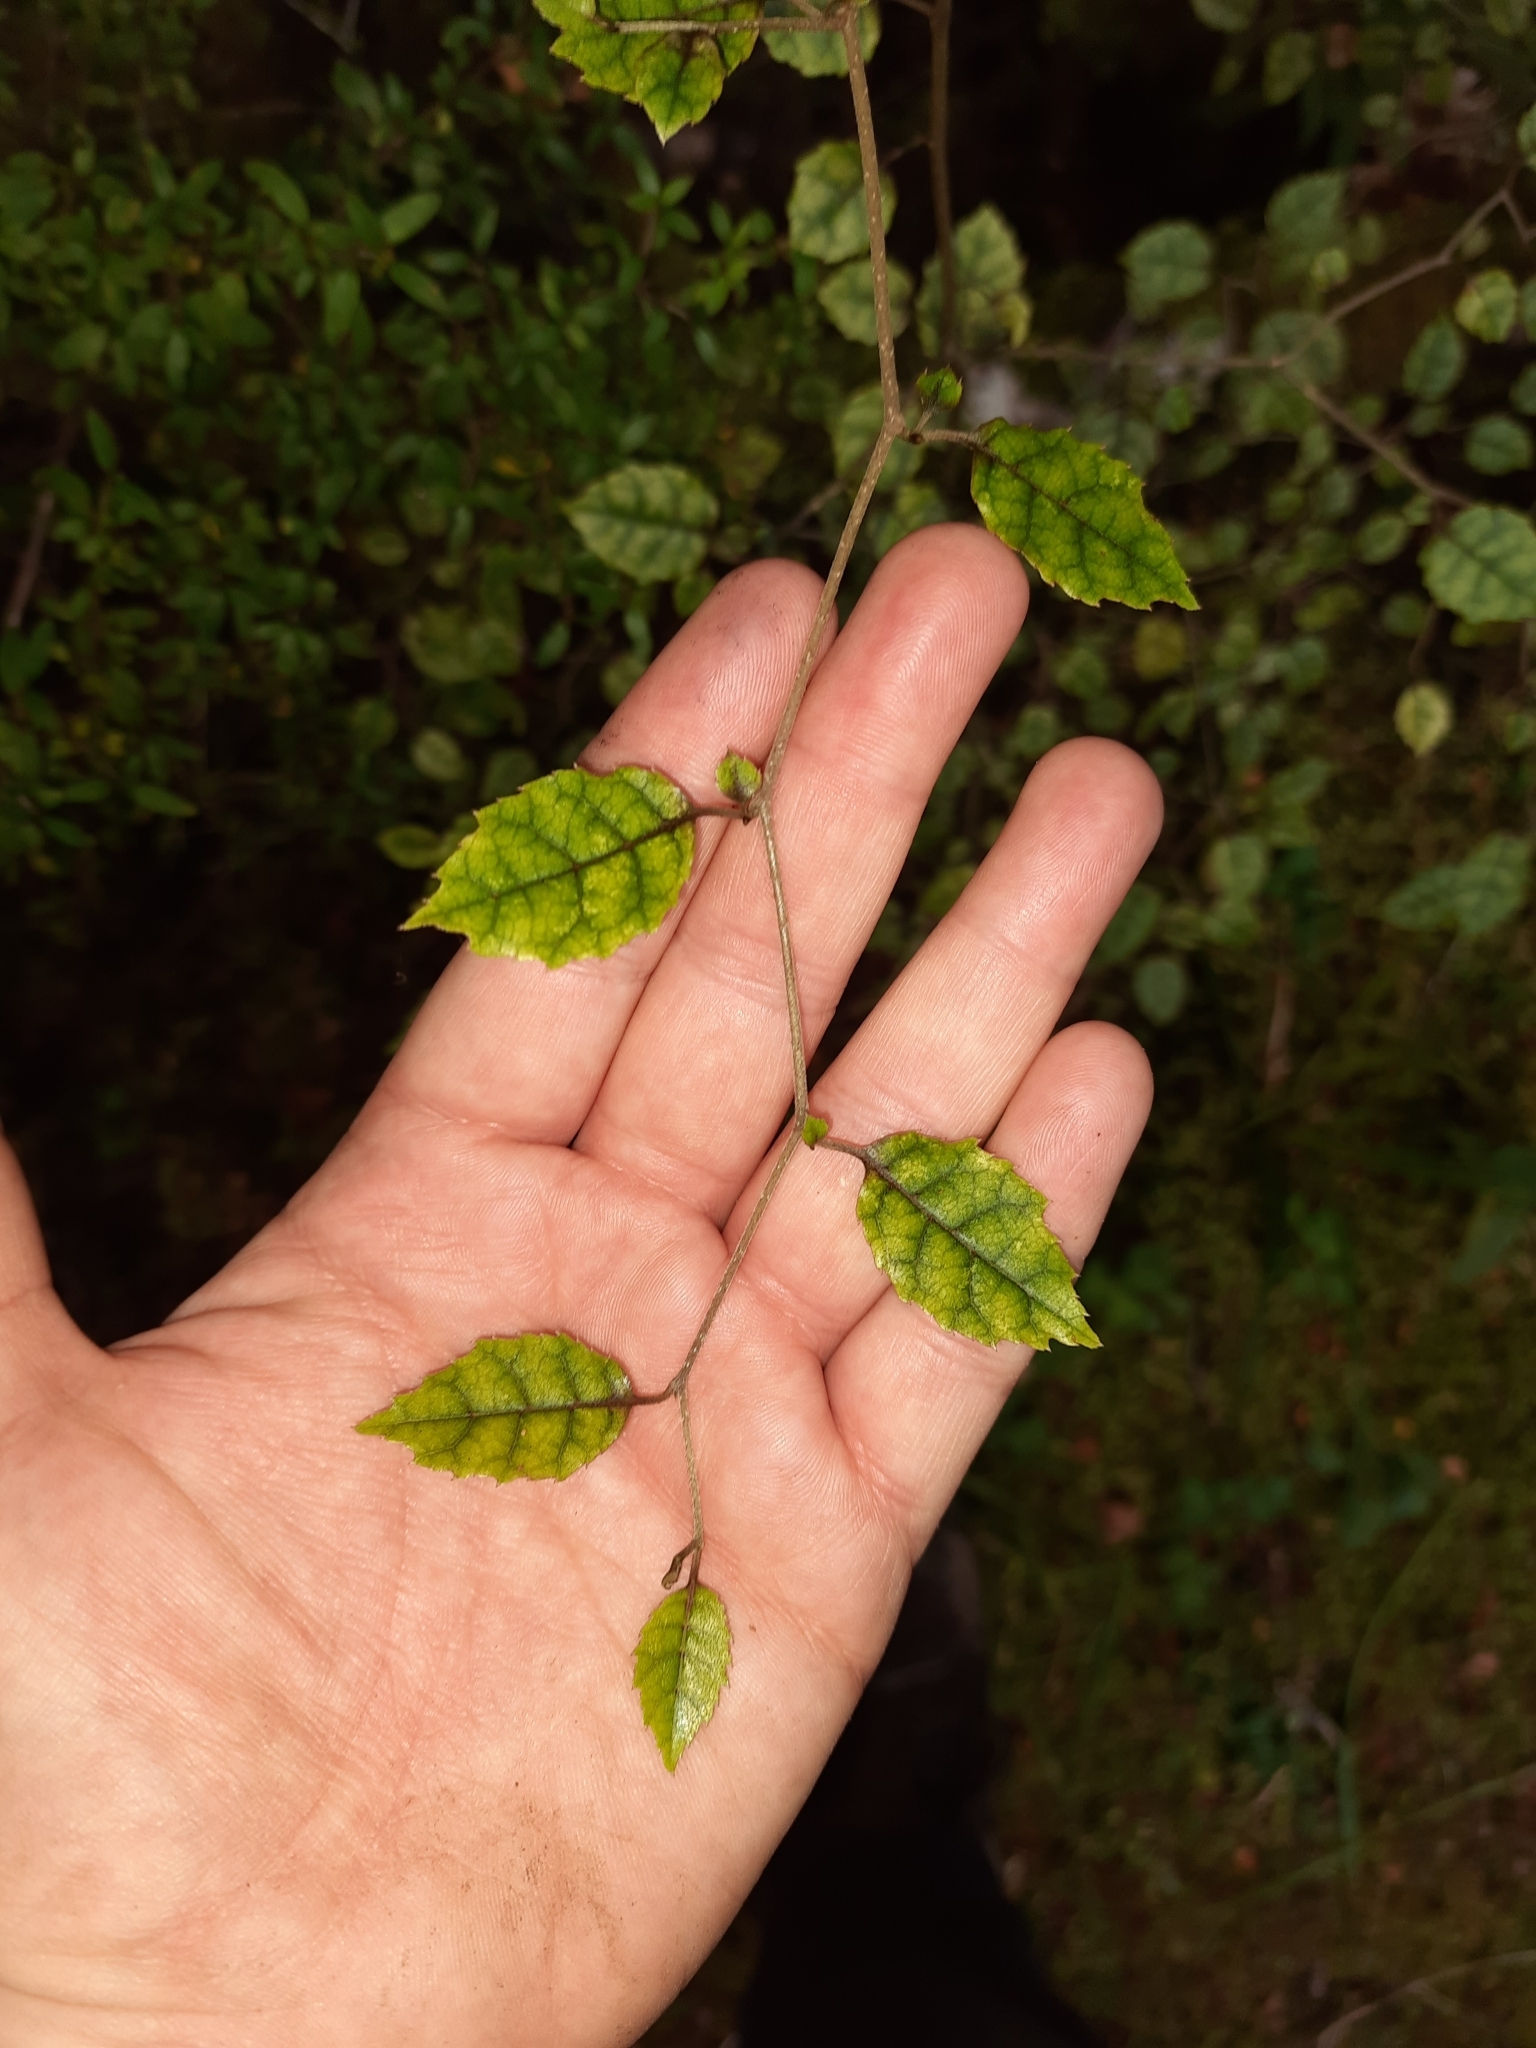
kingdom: Plantae
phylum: Tracheophyta
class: Magnoliopsida
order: Asterales
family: Rousseaceae
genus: Carpodetus
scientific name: Carpodetus serratus
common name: White mapau
